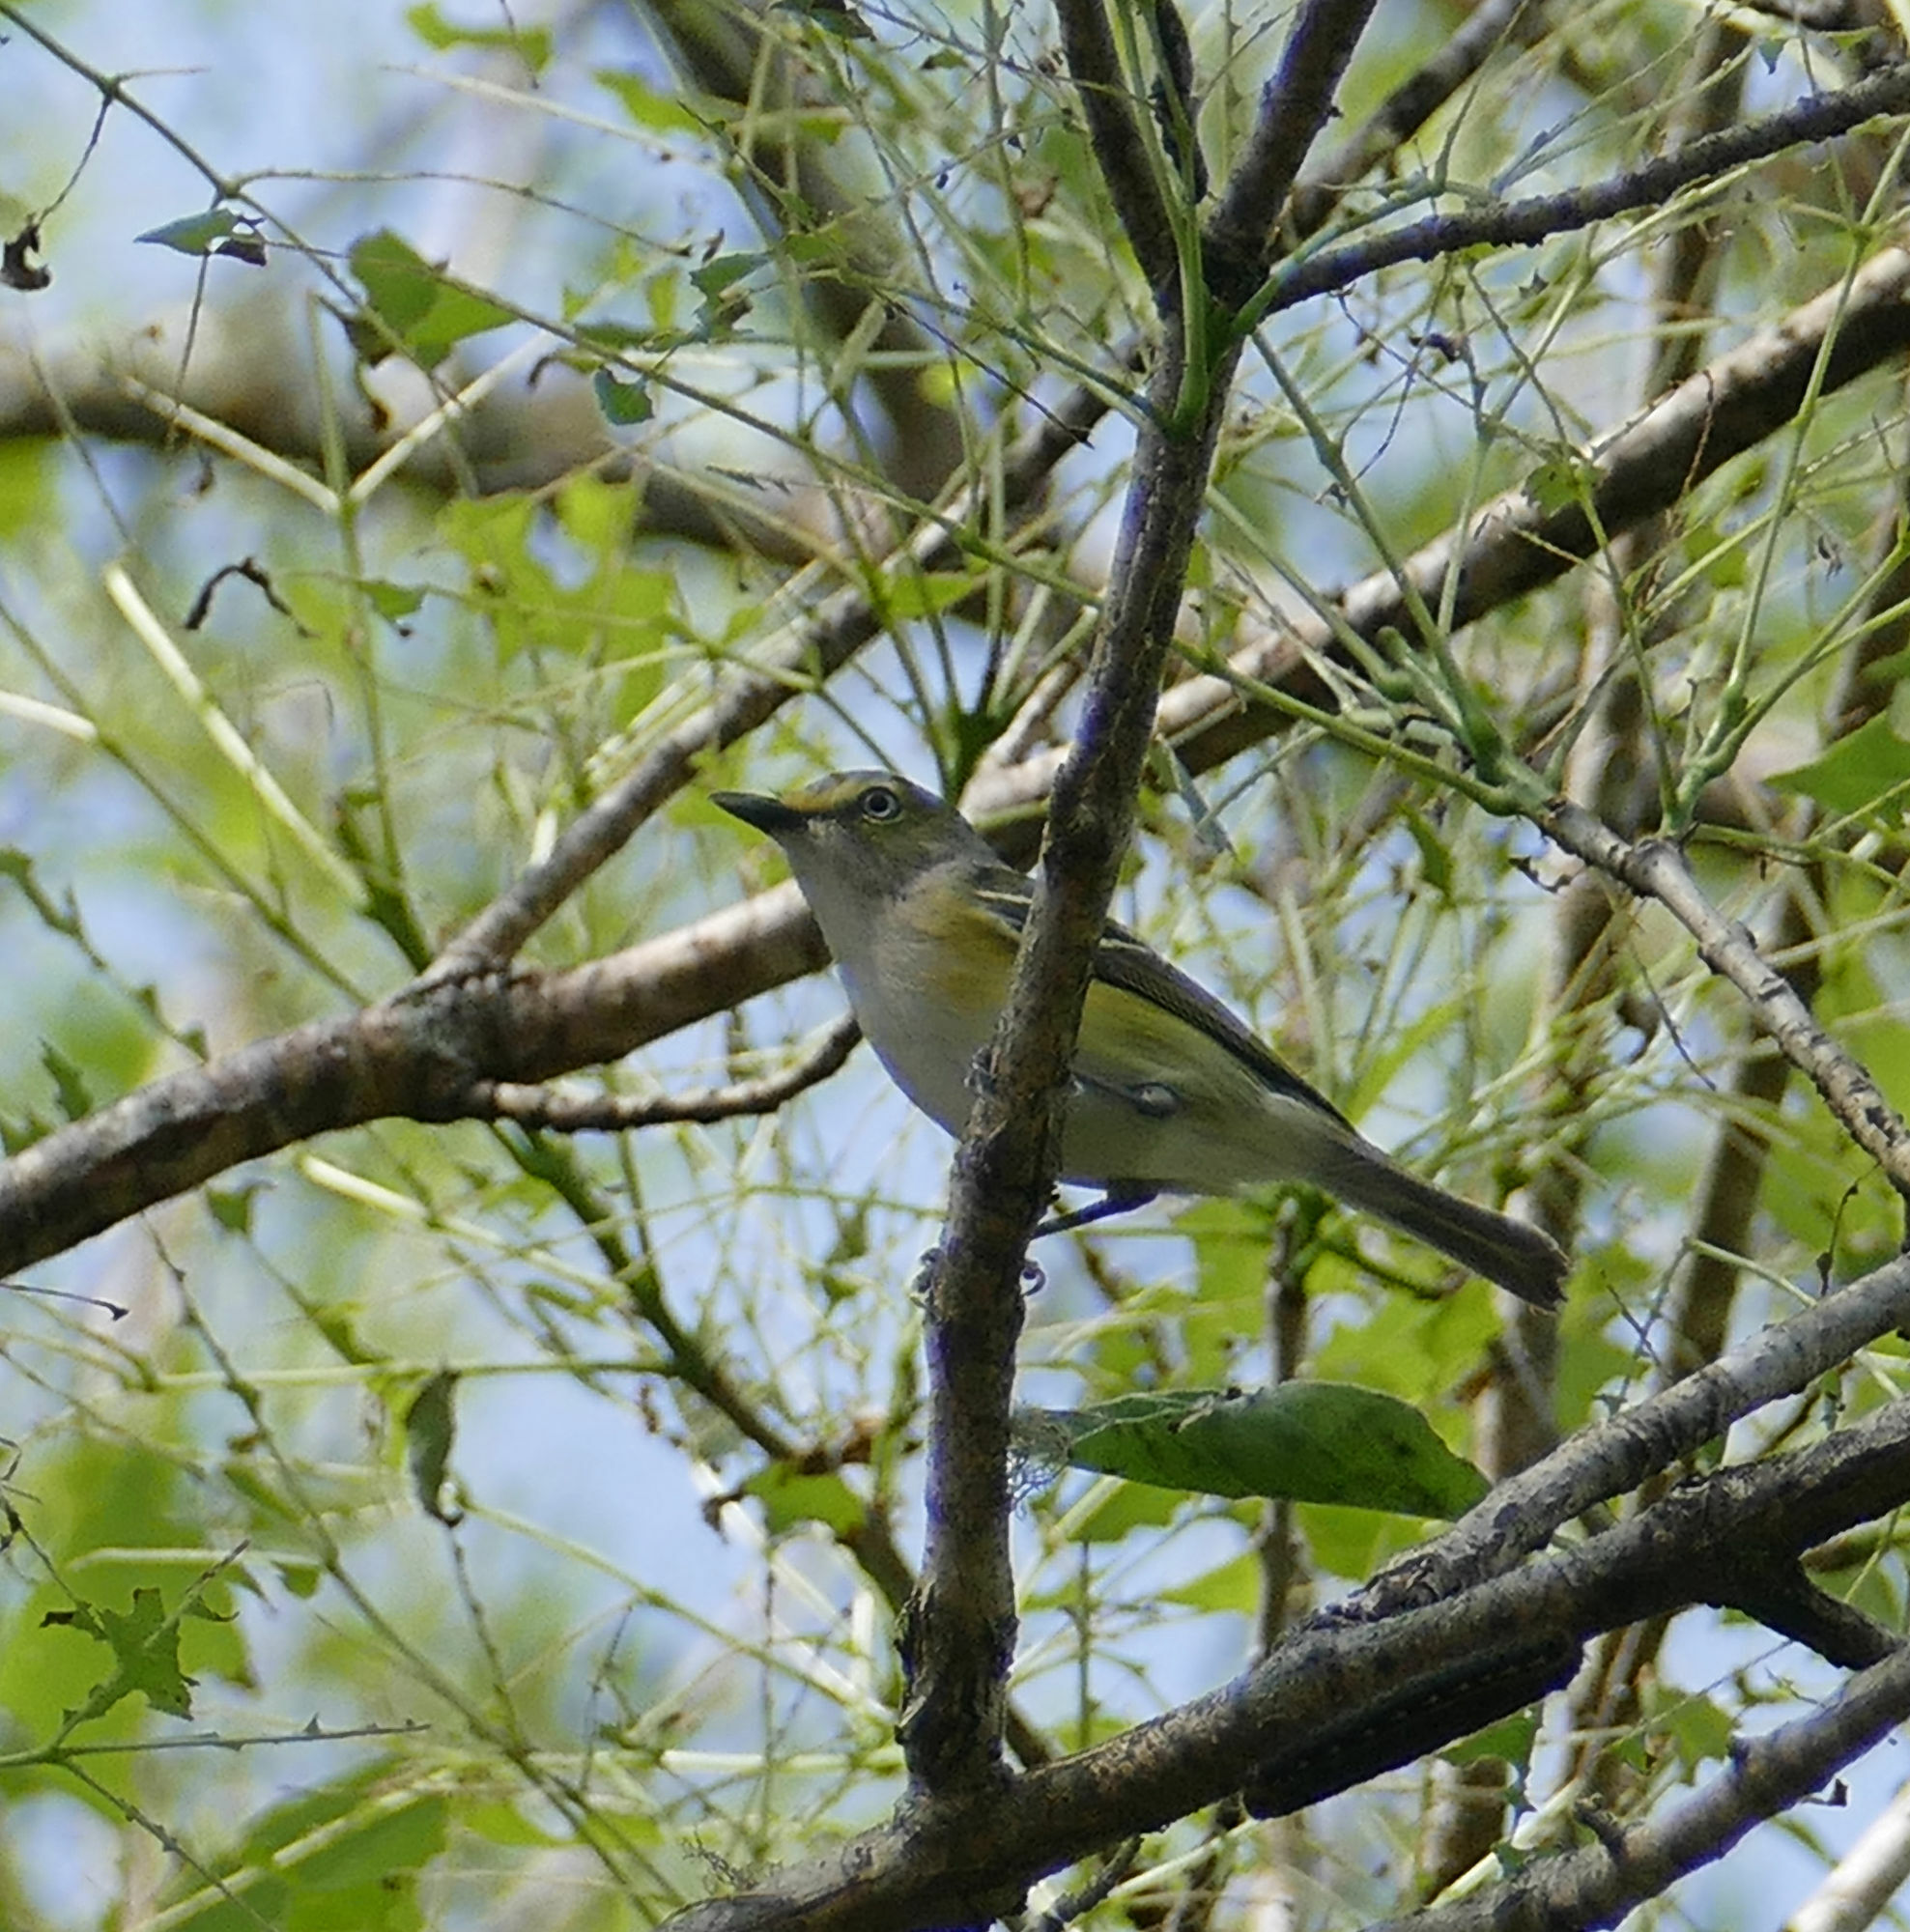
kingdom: Animalia
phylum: Chordata
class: Aves
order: Passeriformes
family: Vireonidae
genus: Vireo
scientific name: Vireo griseus
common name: White-eyed vireo
